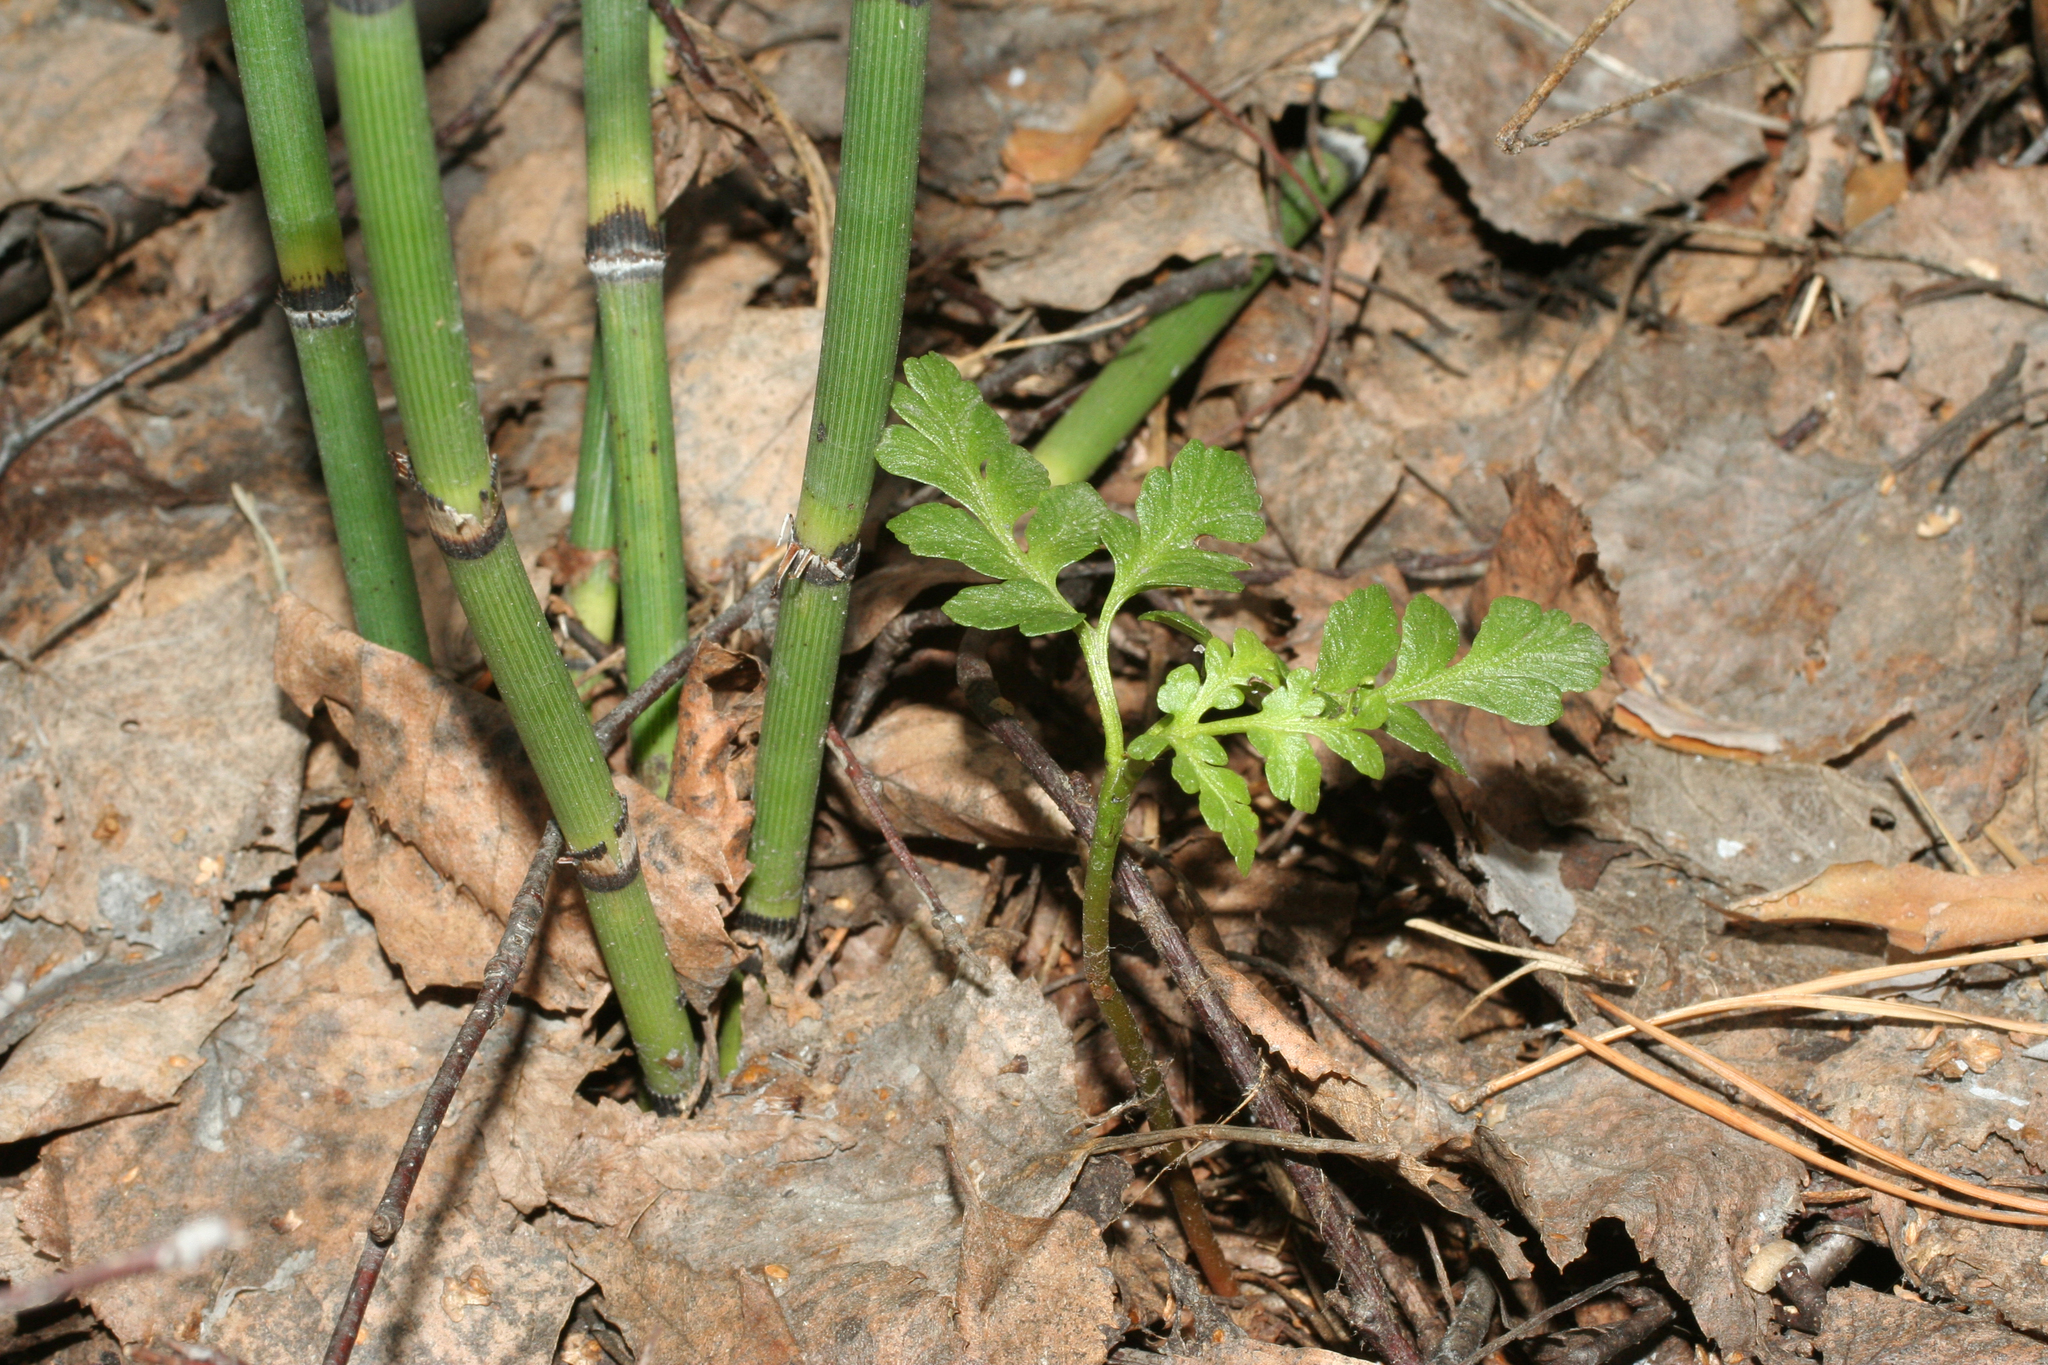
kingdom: Plantae
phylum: Tracheophyta
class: Polypodiopsida
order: Ophioglossales
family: Ophioglossaceae
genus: Sceptridium
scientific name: Sceptridium multifidum
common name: Leathery grape fern
